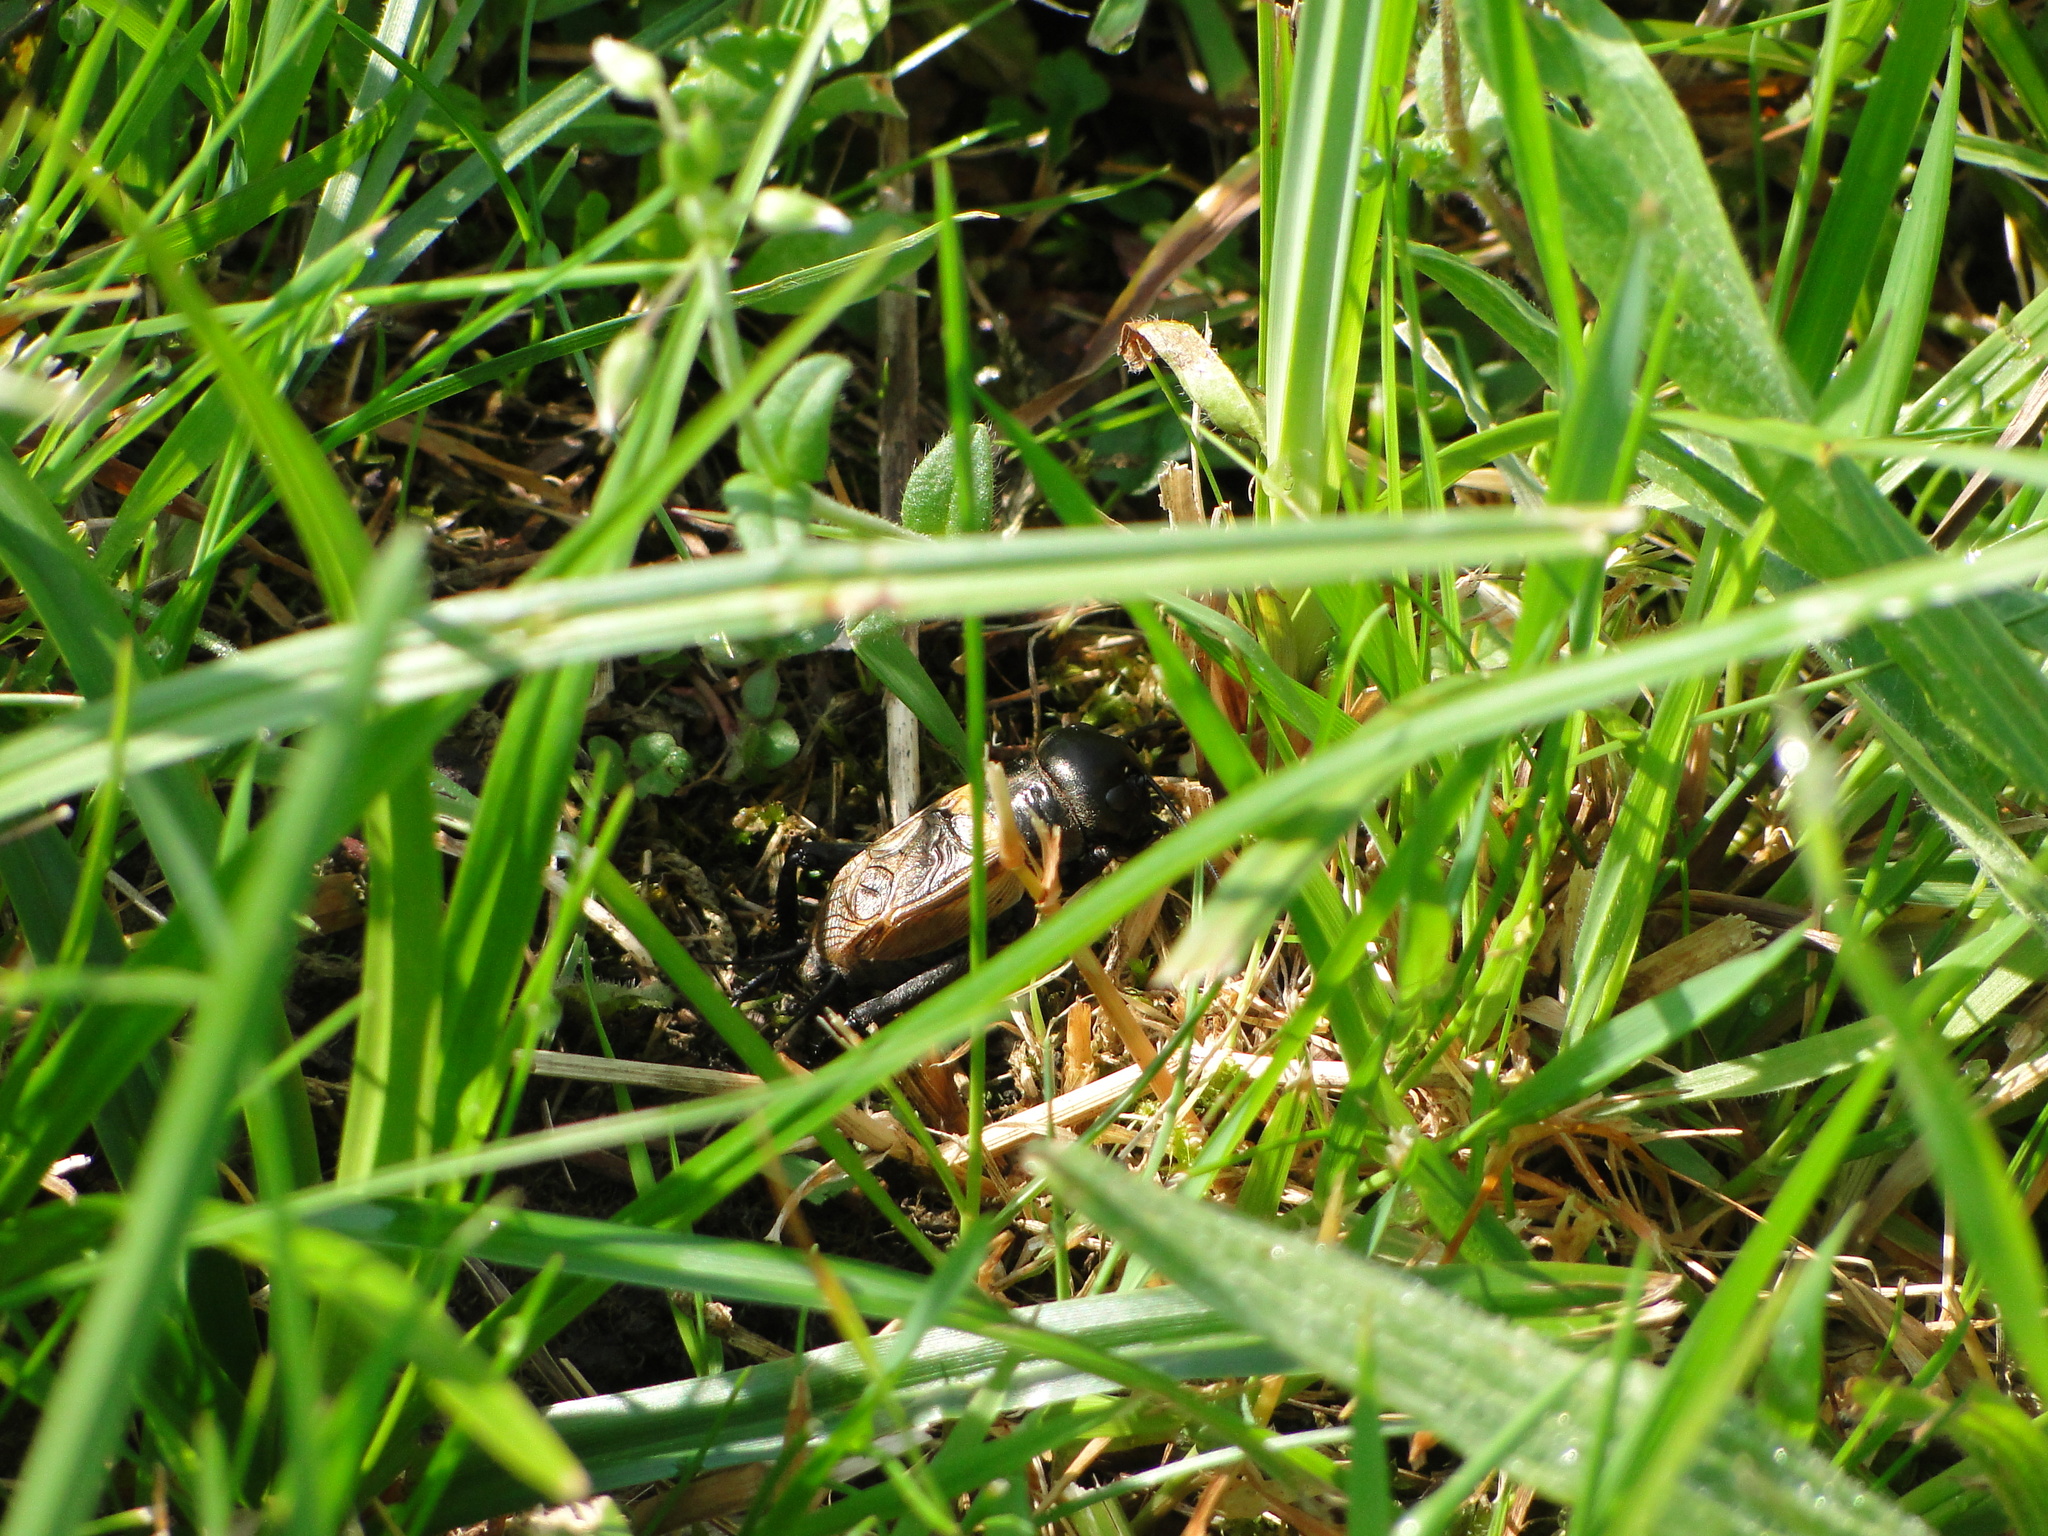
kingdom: Animalia
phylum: Arthropoda
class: Insecta
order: Orthoptera
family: Gryllidae
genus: Gryllus
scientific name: Gryllus campestris
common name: Field cricket
